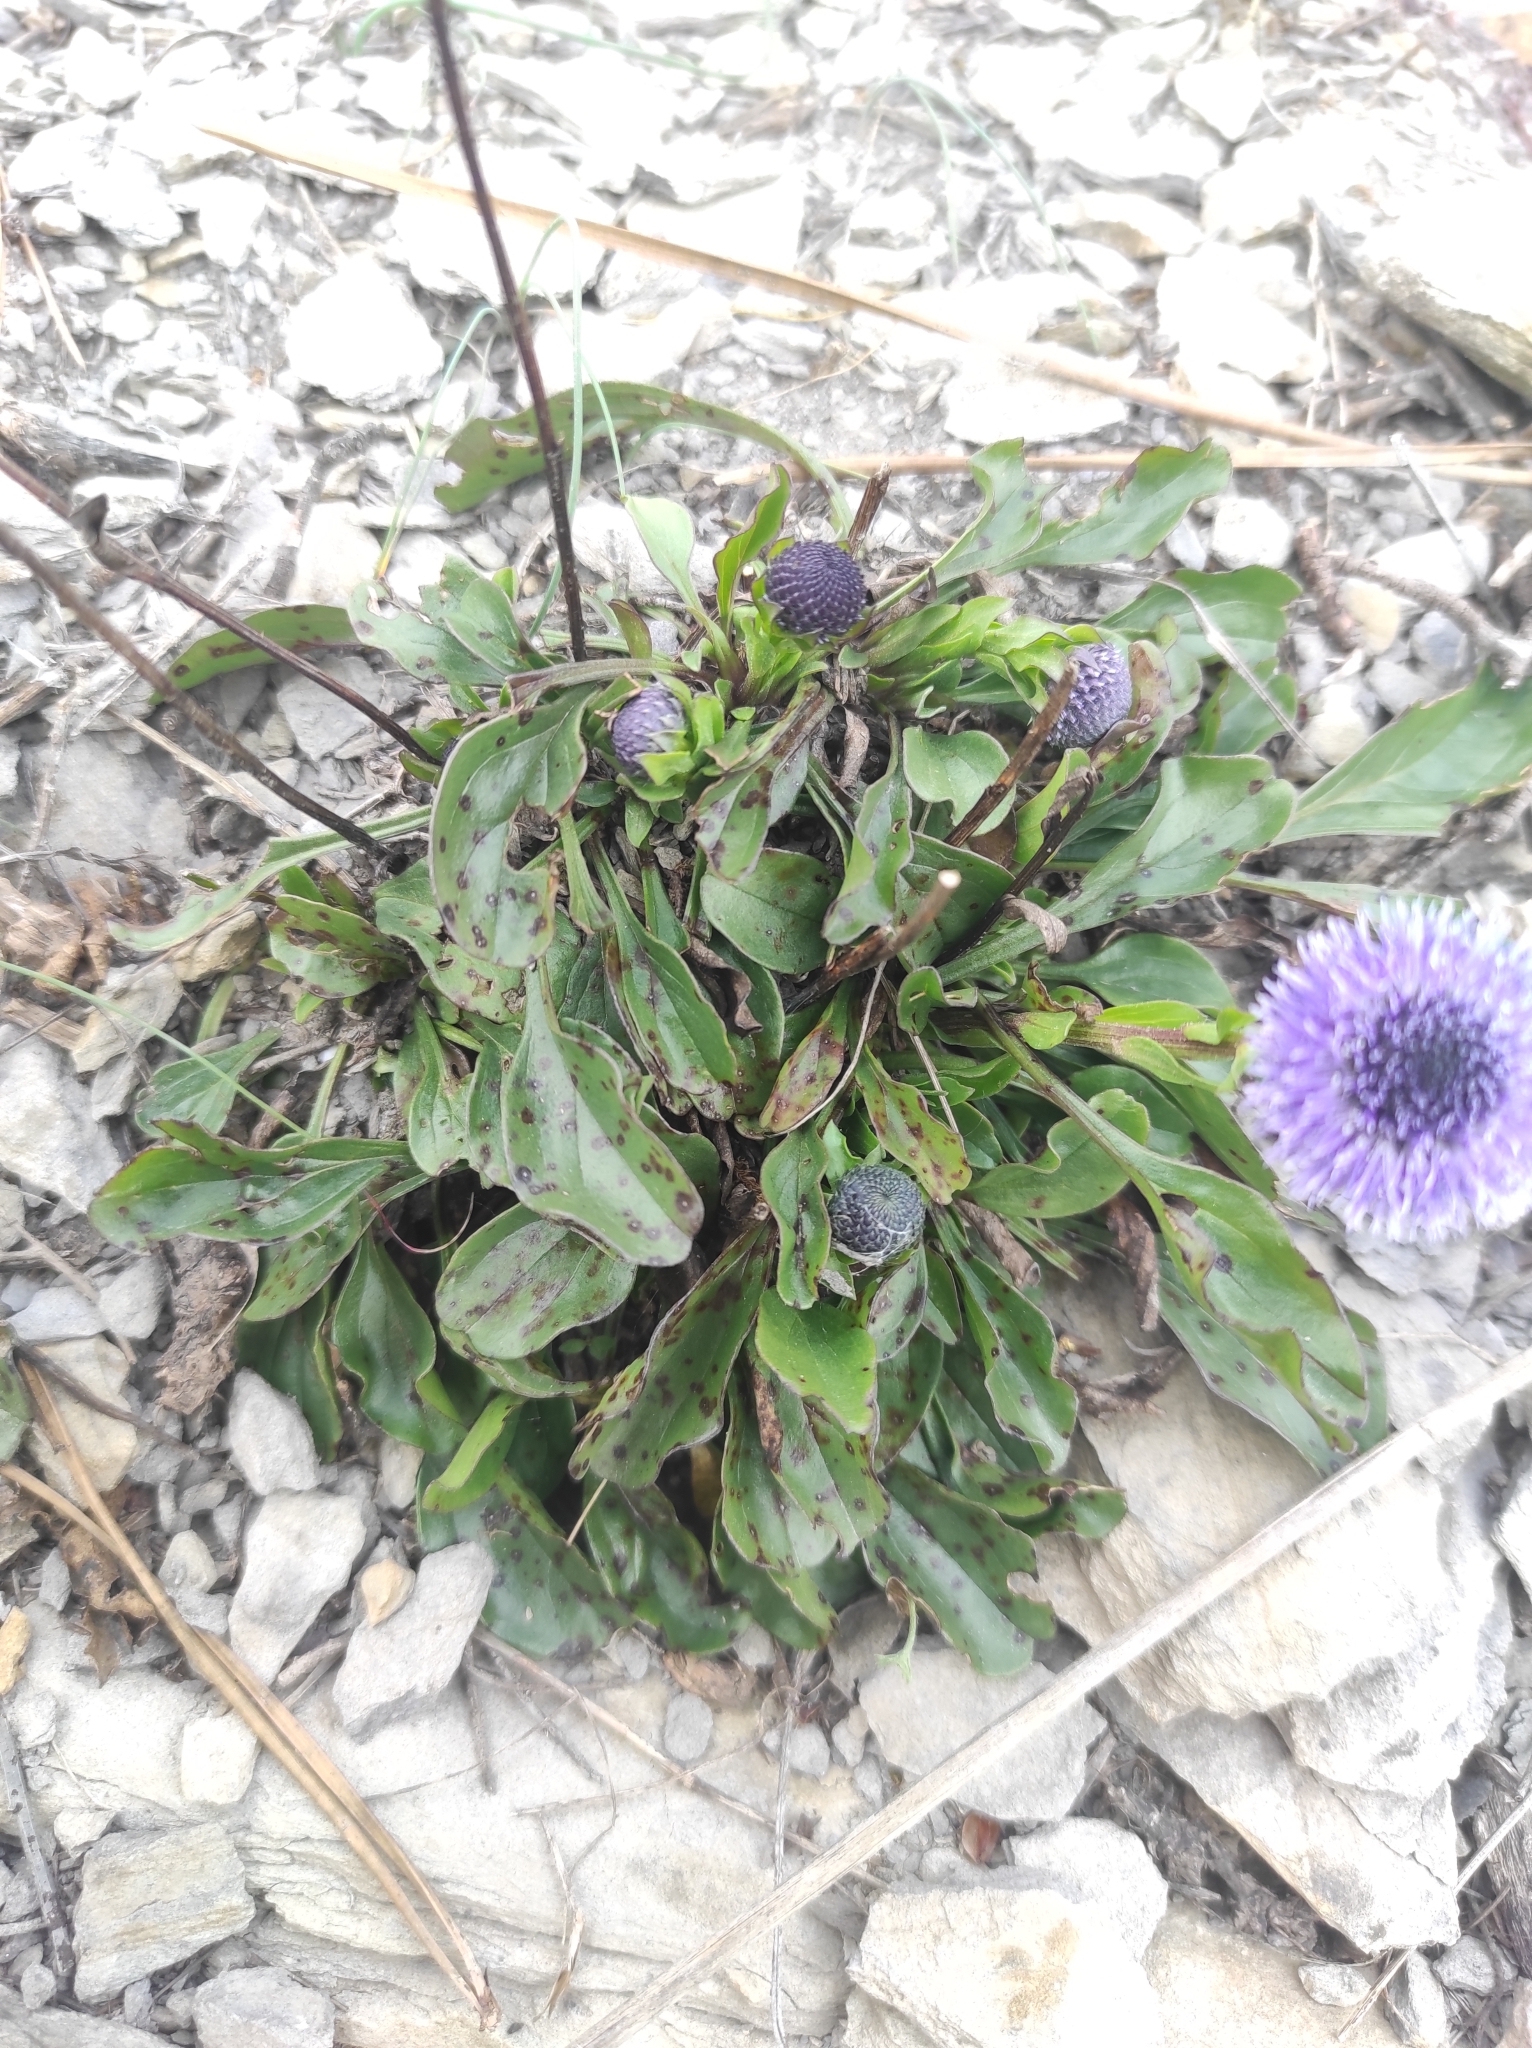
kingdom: Plantae
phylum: Tracheophyta
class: Magnoliopsida
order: Lamiales
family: Plantaginaceae
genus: Globularia
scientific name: Globularia bisnagarica
